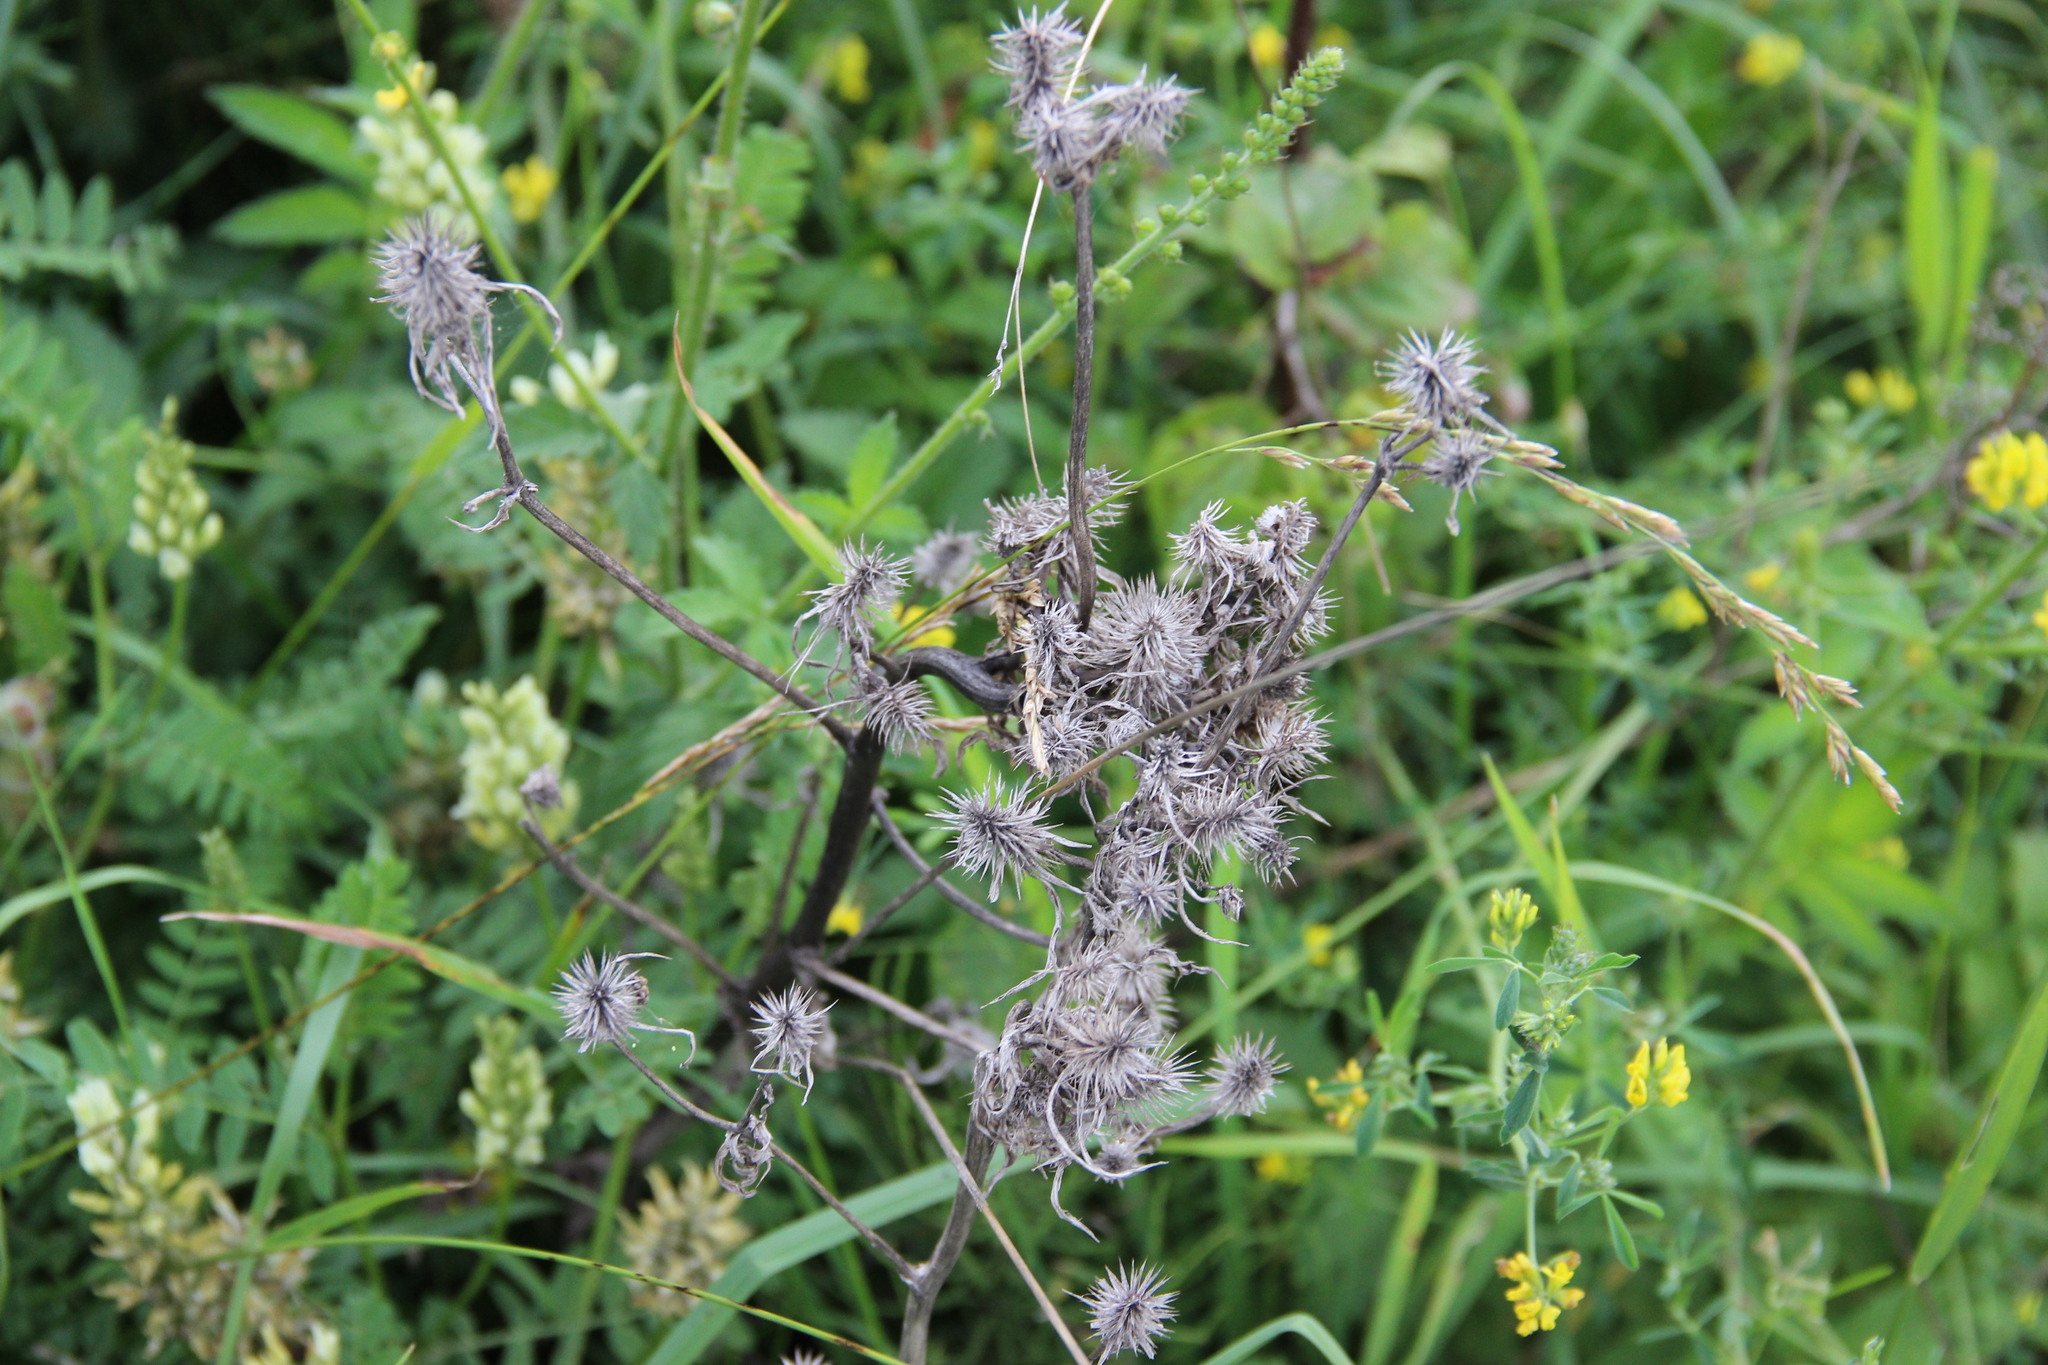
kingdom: Plantae
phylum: Tracheophyta
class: Magnoliopsida
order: Apiales
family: Apiaceae
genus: Eryngium
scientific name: Eryngium planum
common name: Blue eryngo
